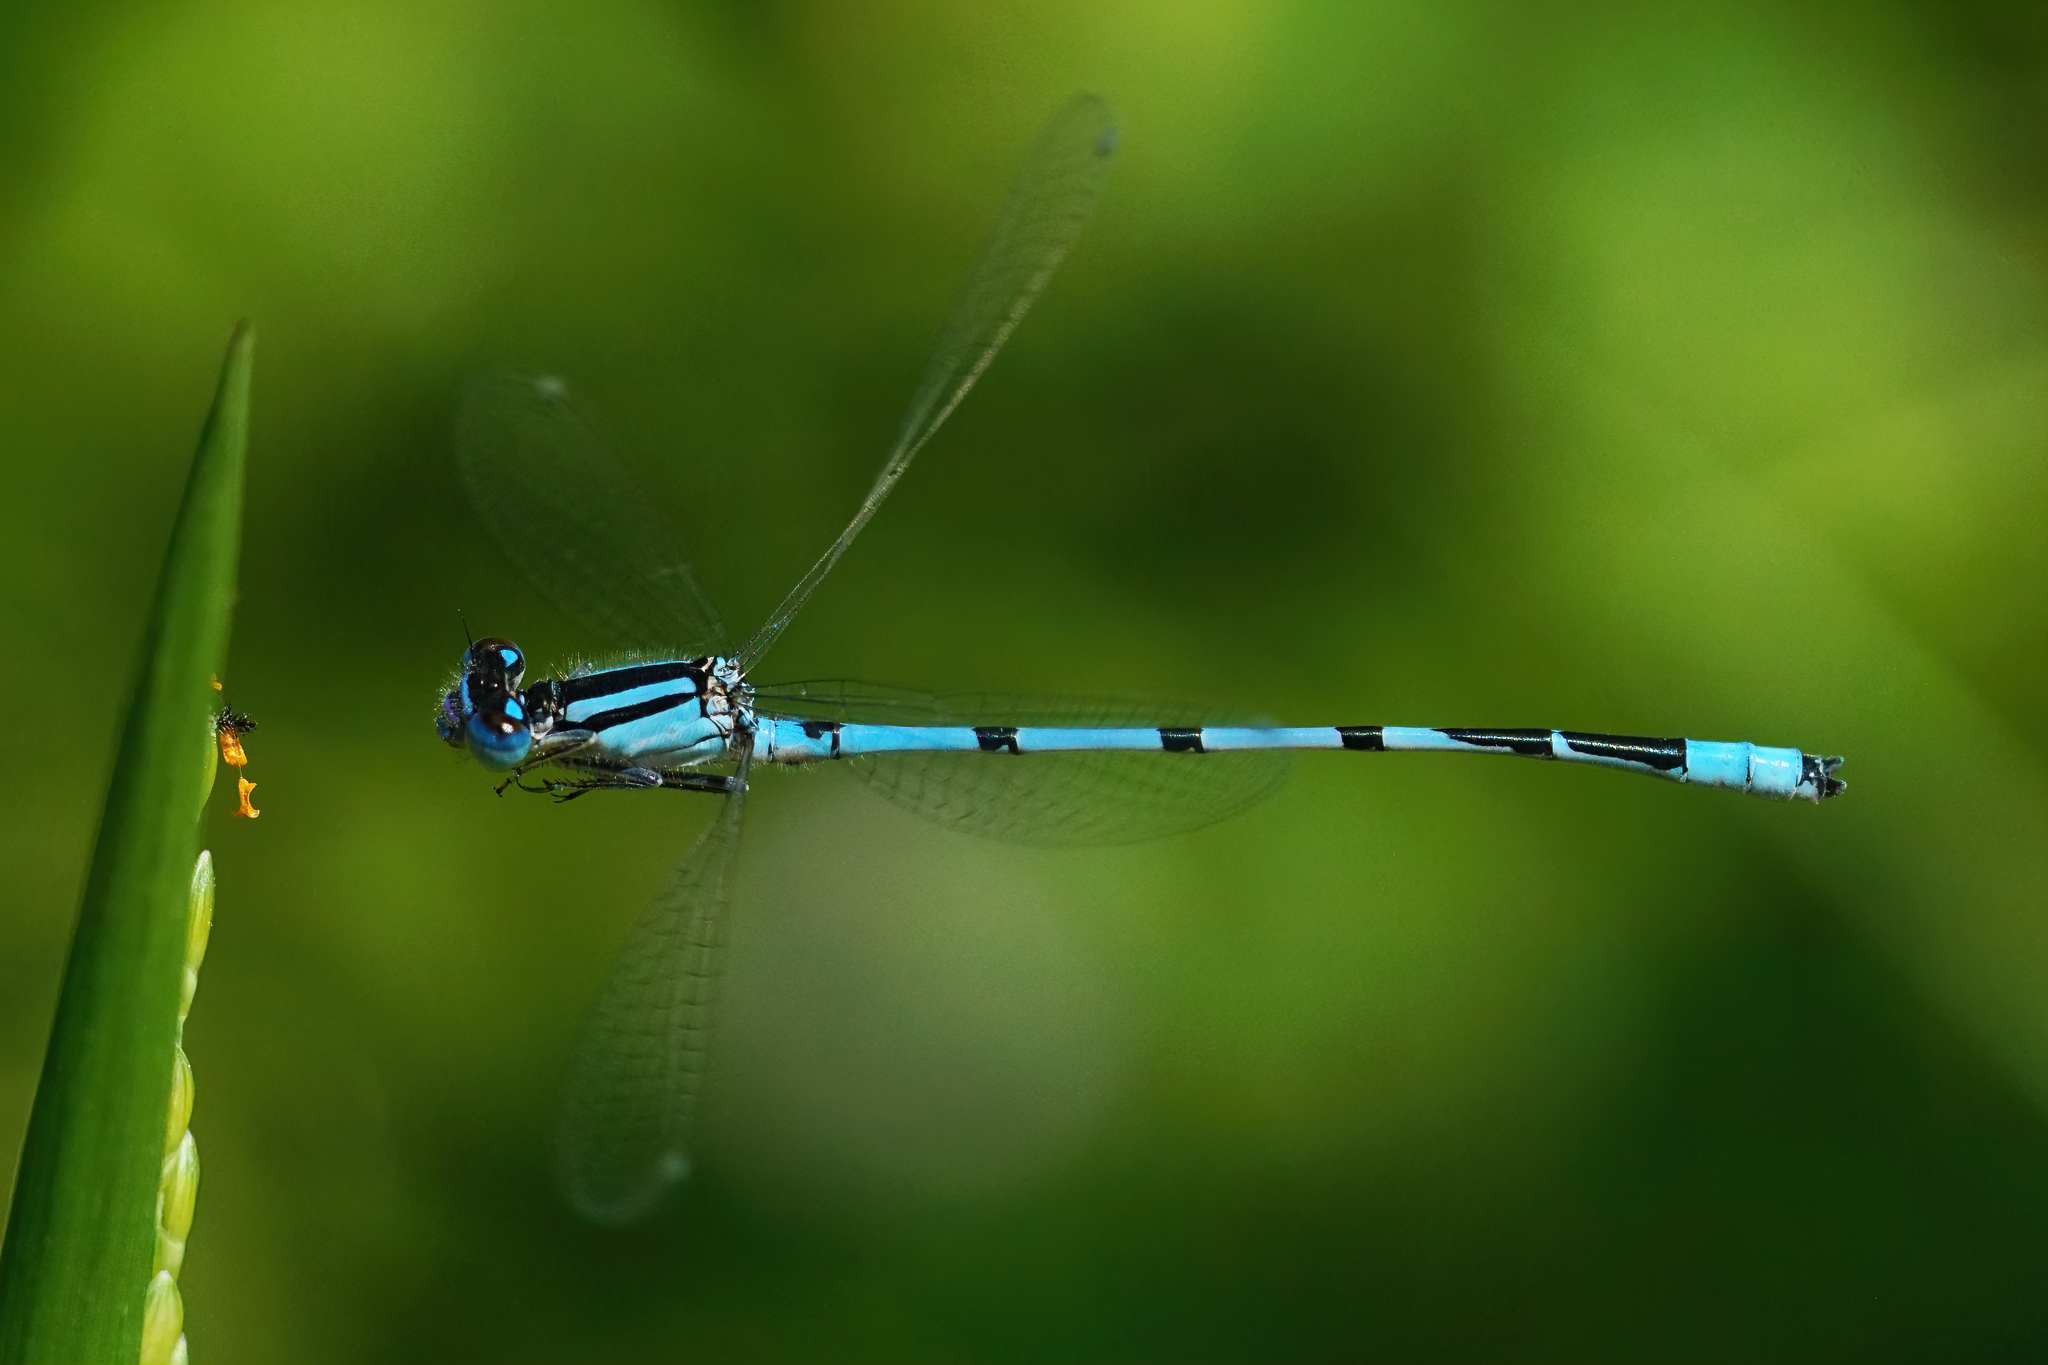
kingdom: Animalia
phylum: Arthropoda
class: Insecta
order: Odonata
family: Coenagrionidae
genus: Enallagma
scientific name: Enallagma civile
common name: Damselfly
